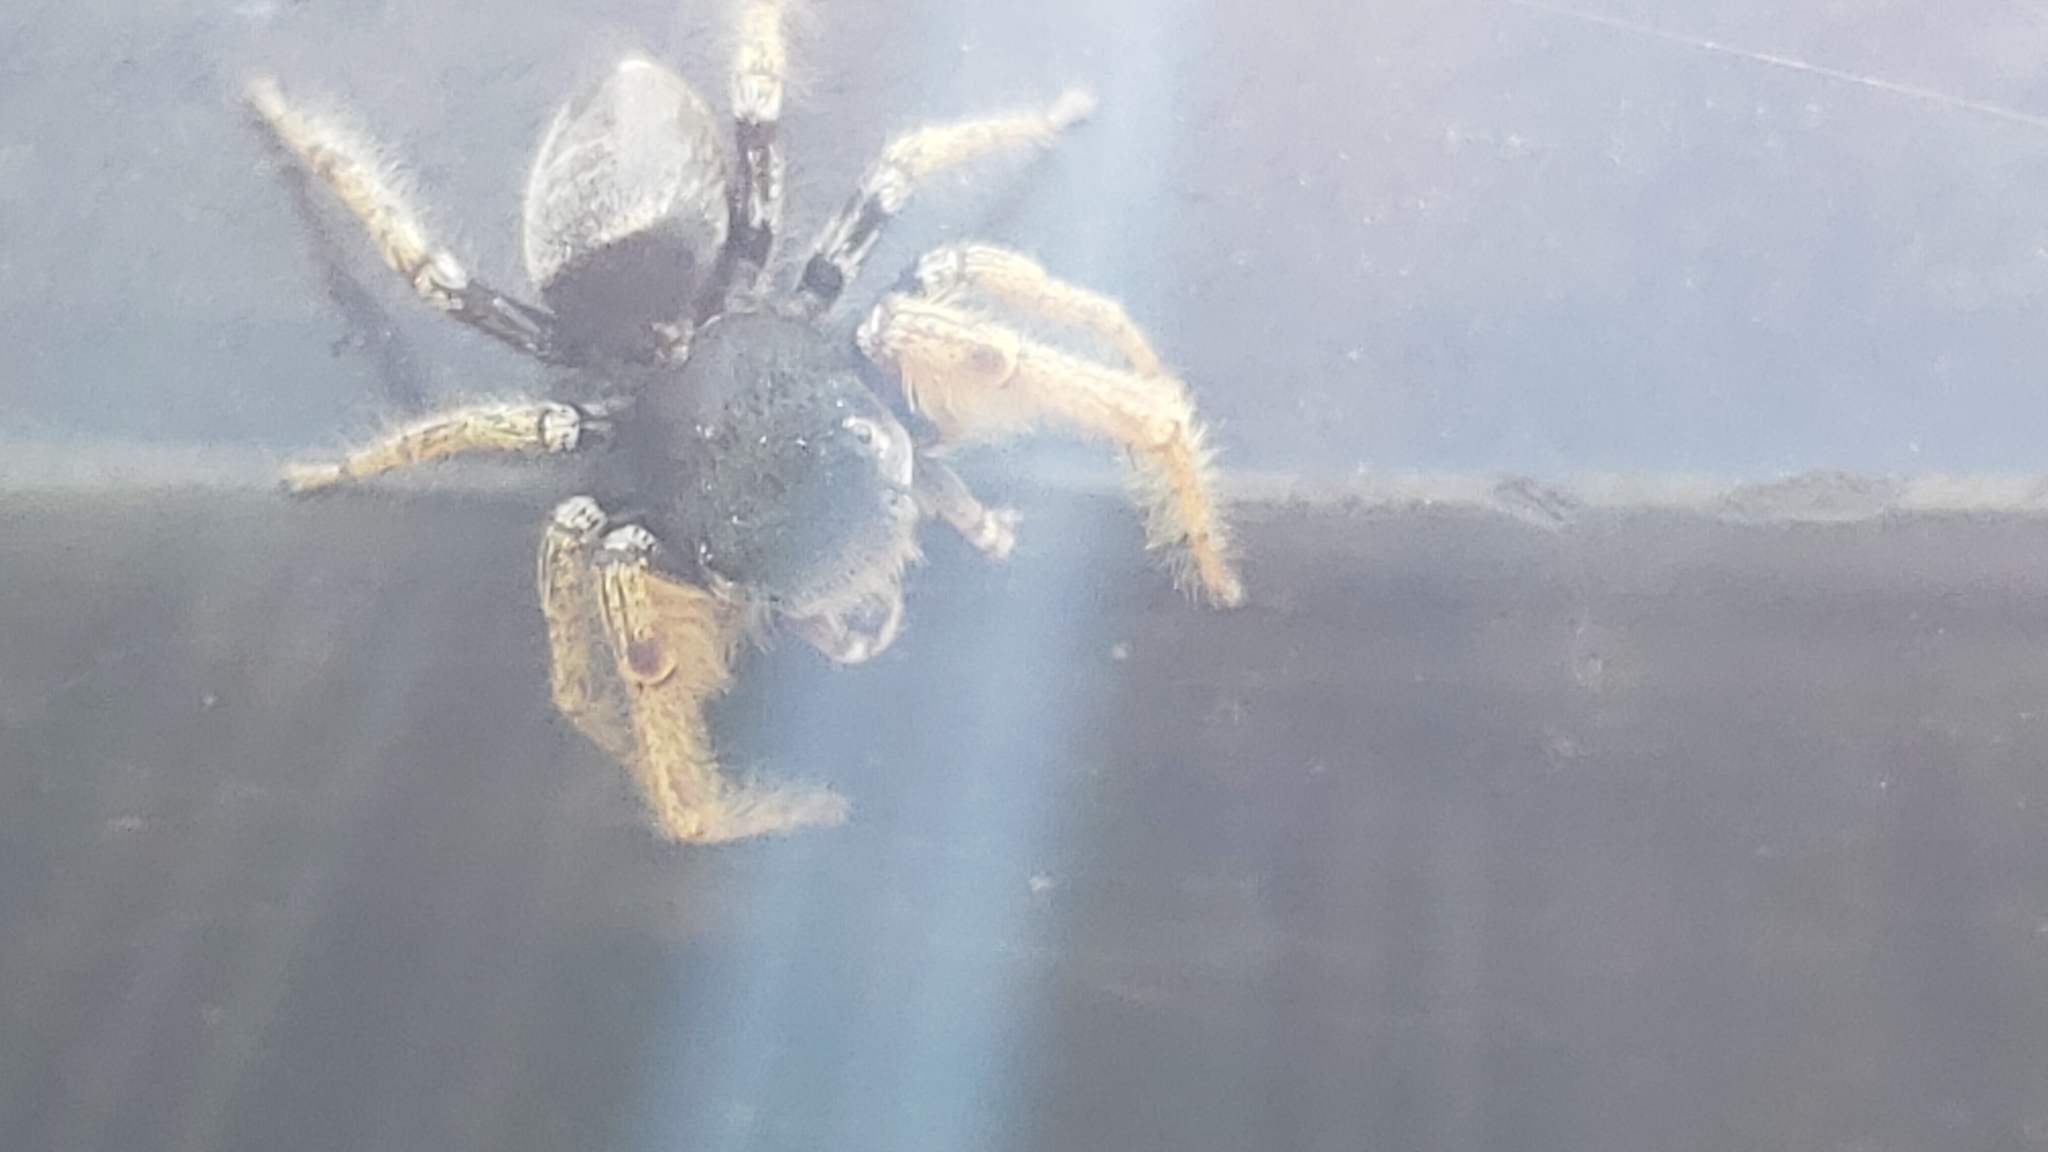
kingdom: Animalia
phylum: Arthropoda
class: Arachnida
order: Araneae
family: Salticidae
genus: Phidippus
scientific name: Phidippus arizonensis
